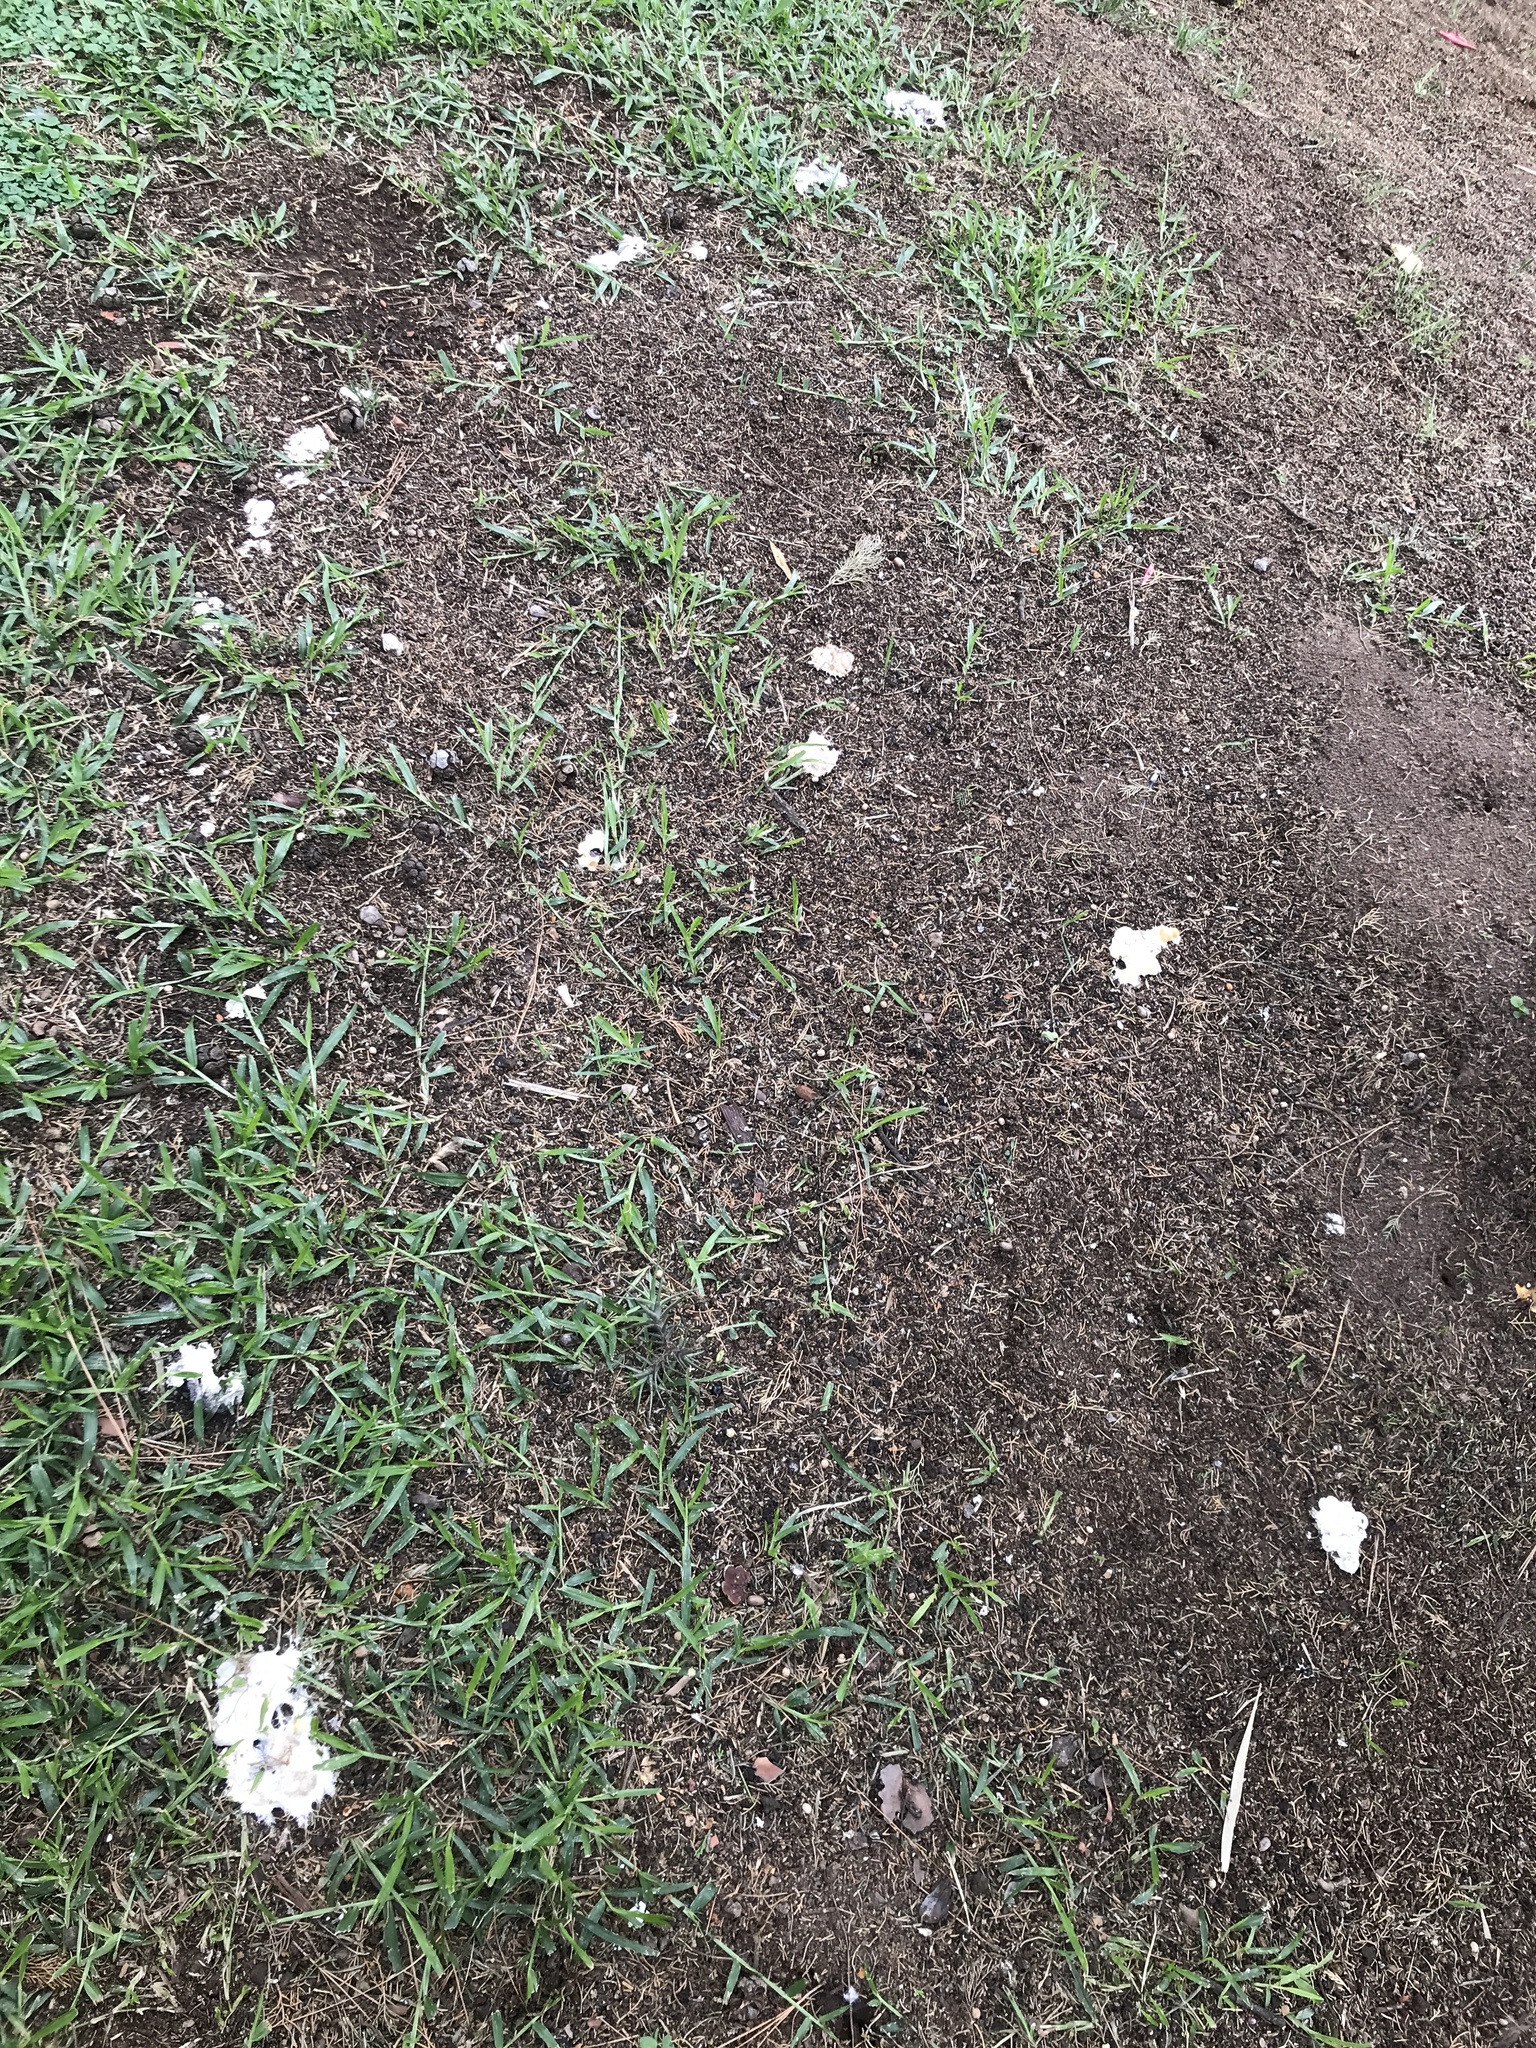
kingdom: Protozoa
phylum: Mycetozoa
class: Myxomycetes
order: Physarales
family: Physaraceae
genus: Fuligo
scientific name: Fuligo septica
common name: Dog vomit slime mold
